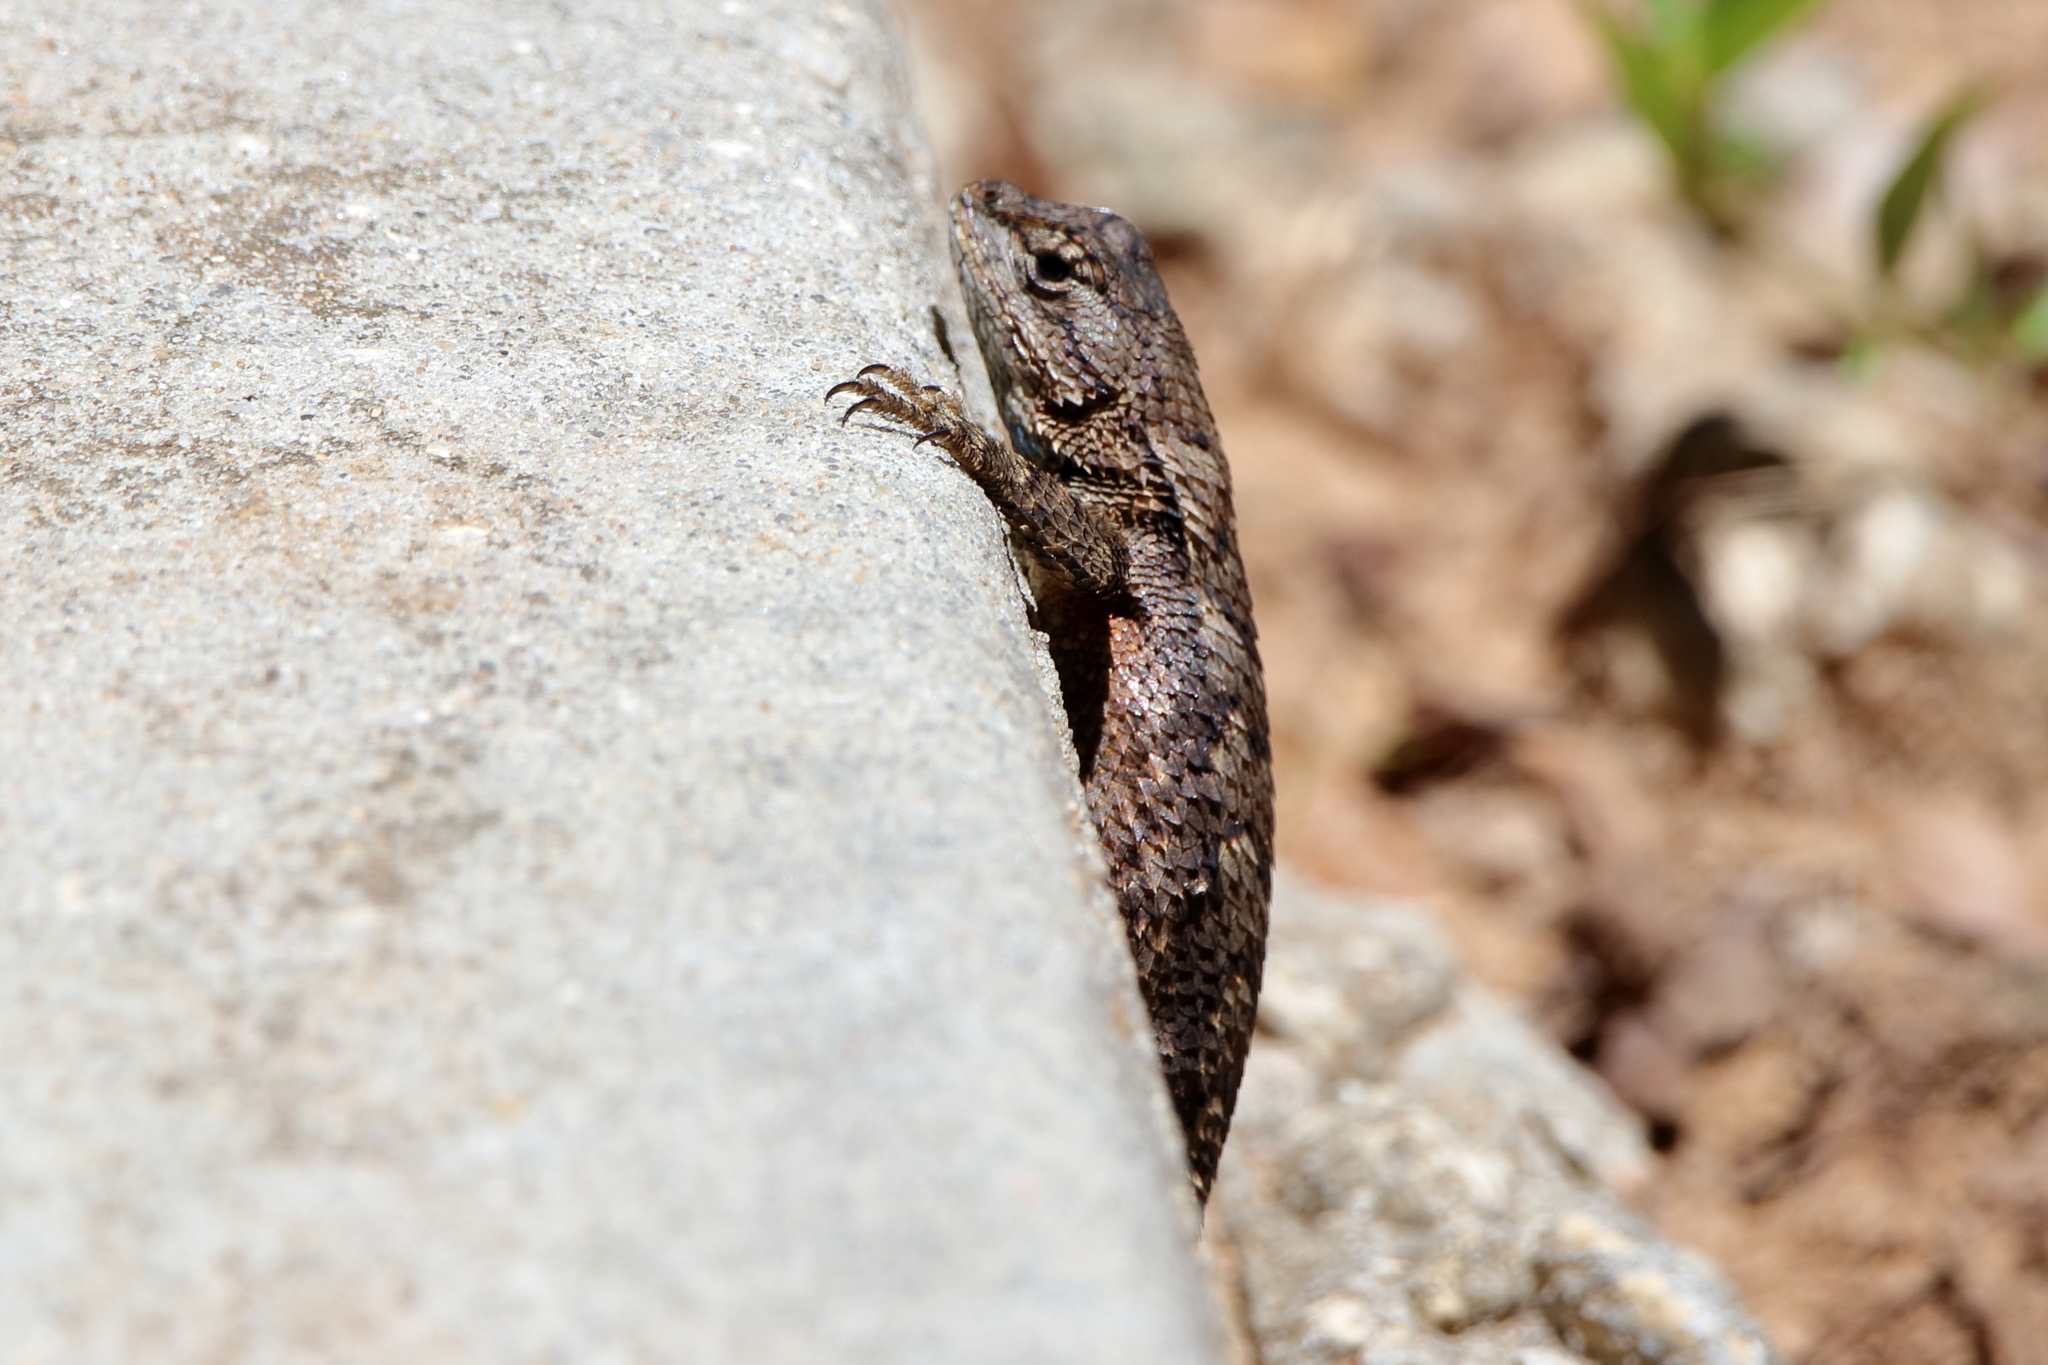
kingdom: Animalia
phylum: Chordata
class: Squamata
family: Phrynosomatidae
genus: Sceloporus
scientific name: Sceloporus consobrinus
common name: Southern prairie lizard
